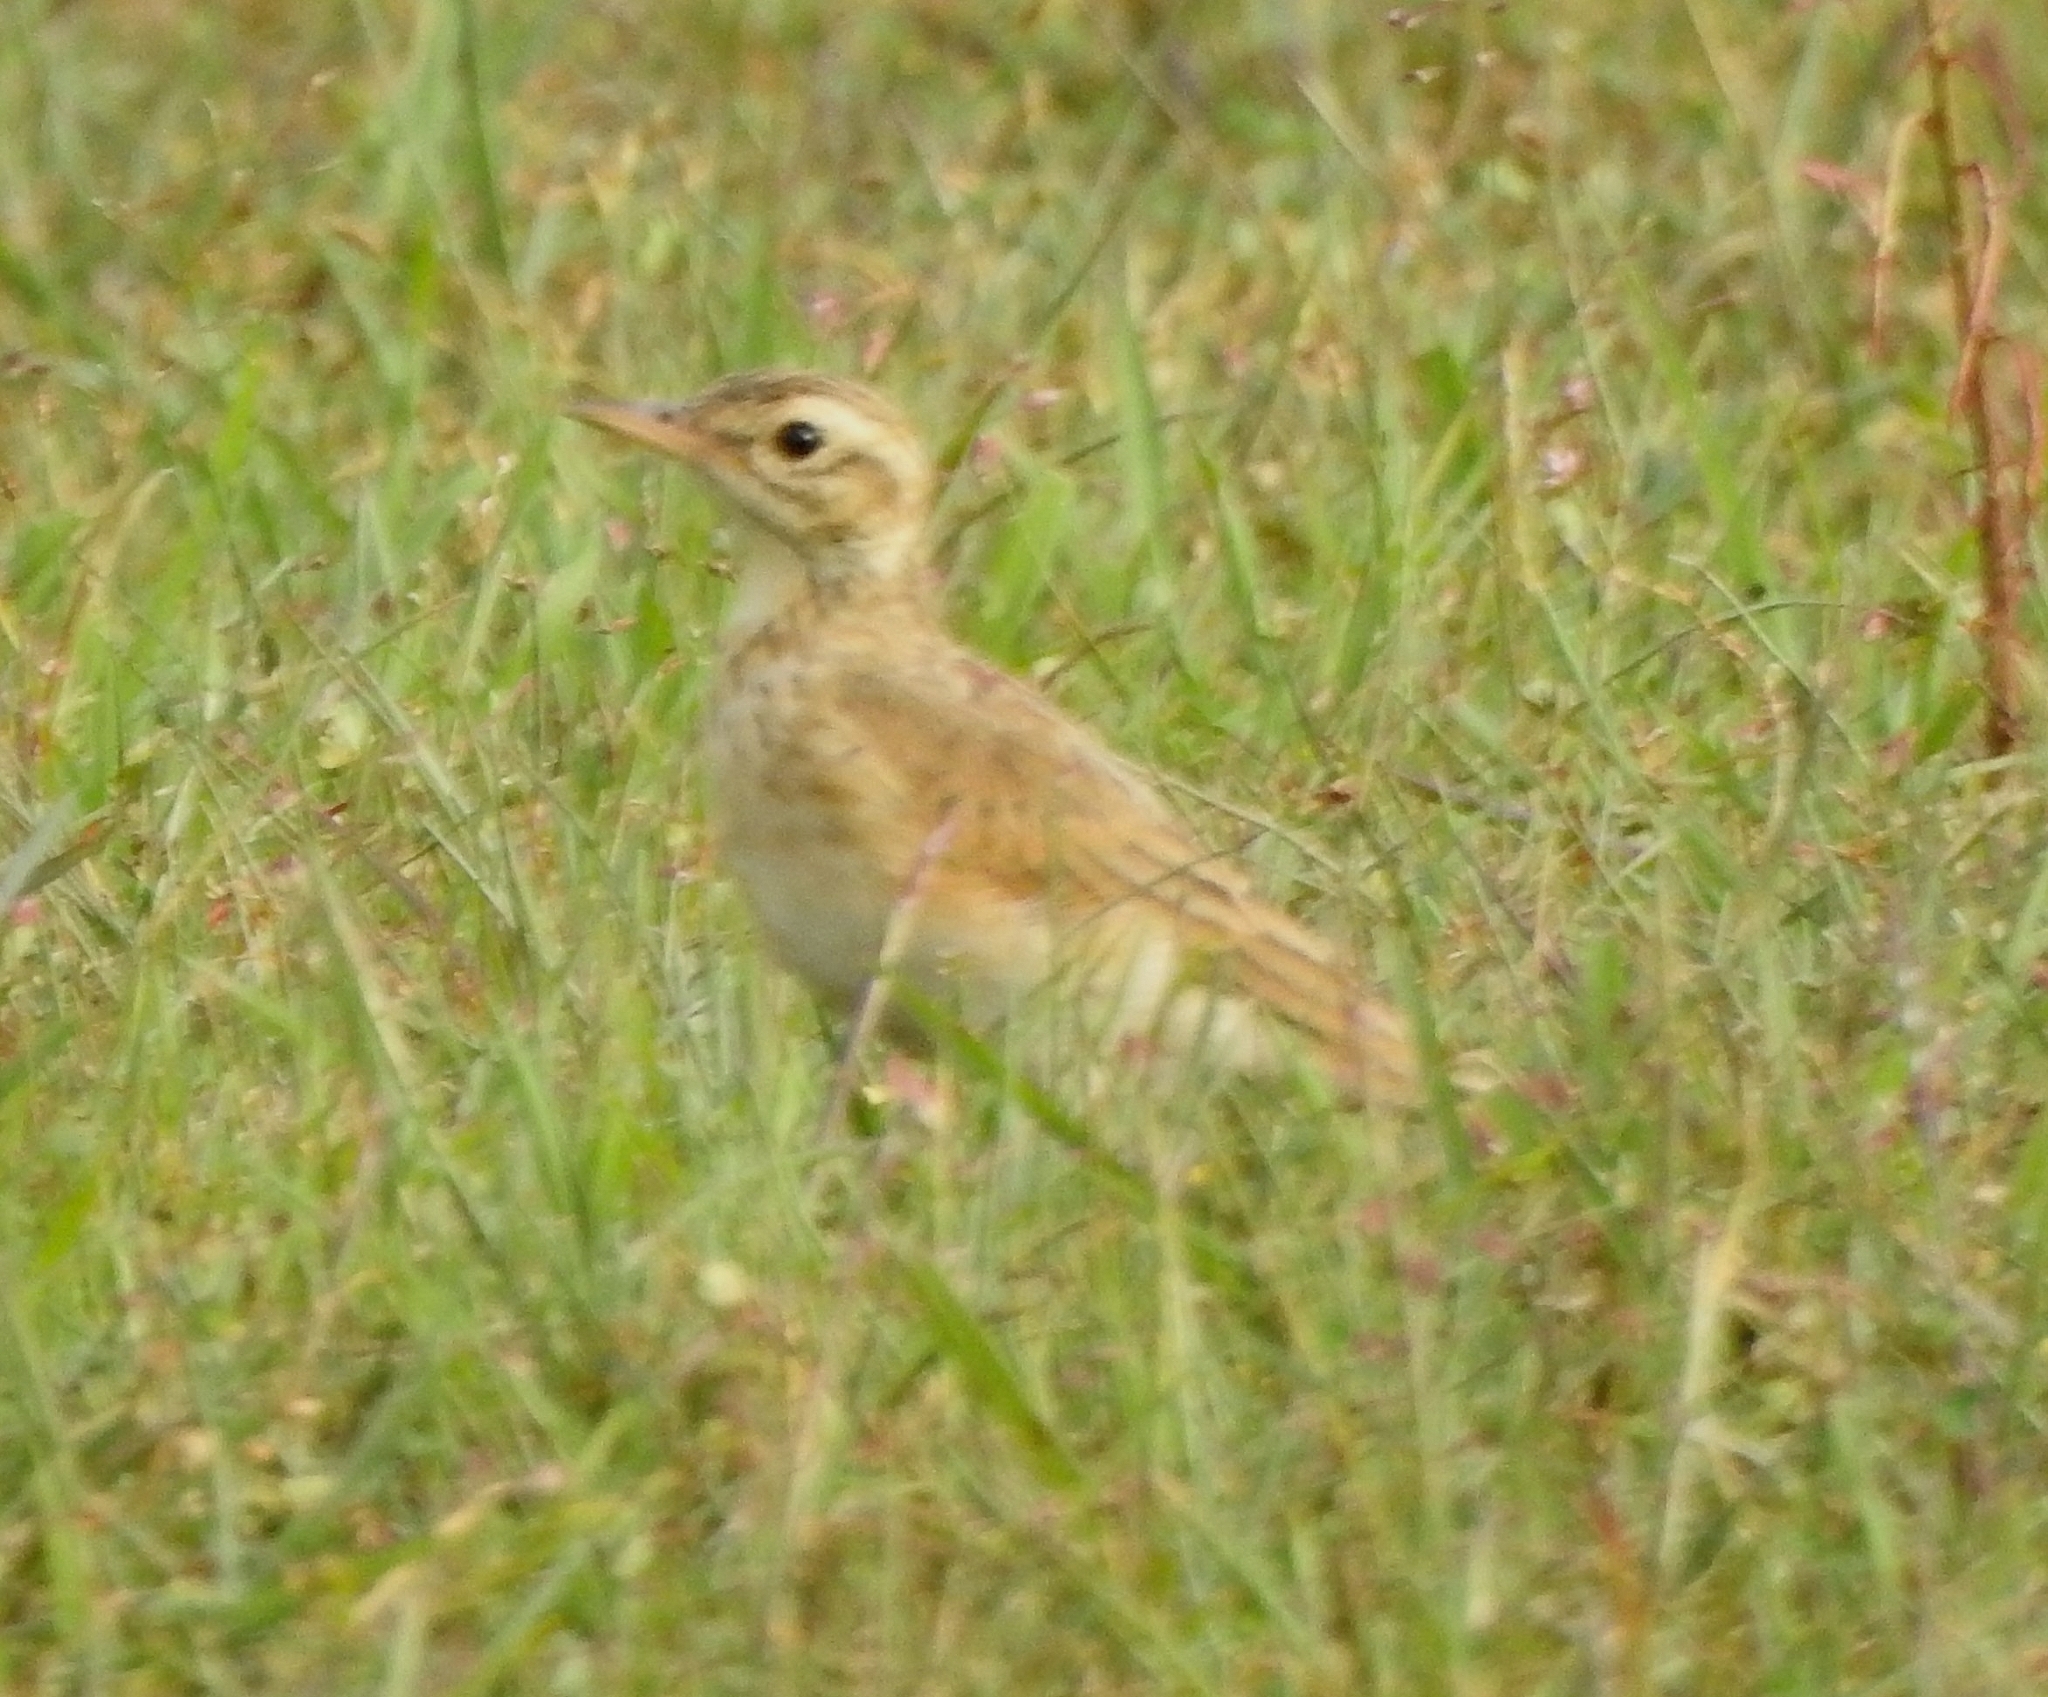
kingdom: Animalia
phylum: Chordata
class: Aves
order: Passeriformes
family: Motacillidae
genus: Anthus
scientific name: Anthus rufulus
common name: Paddyfield pipit
